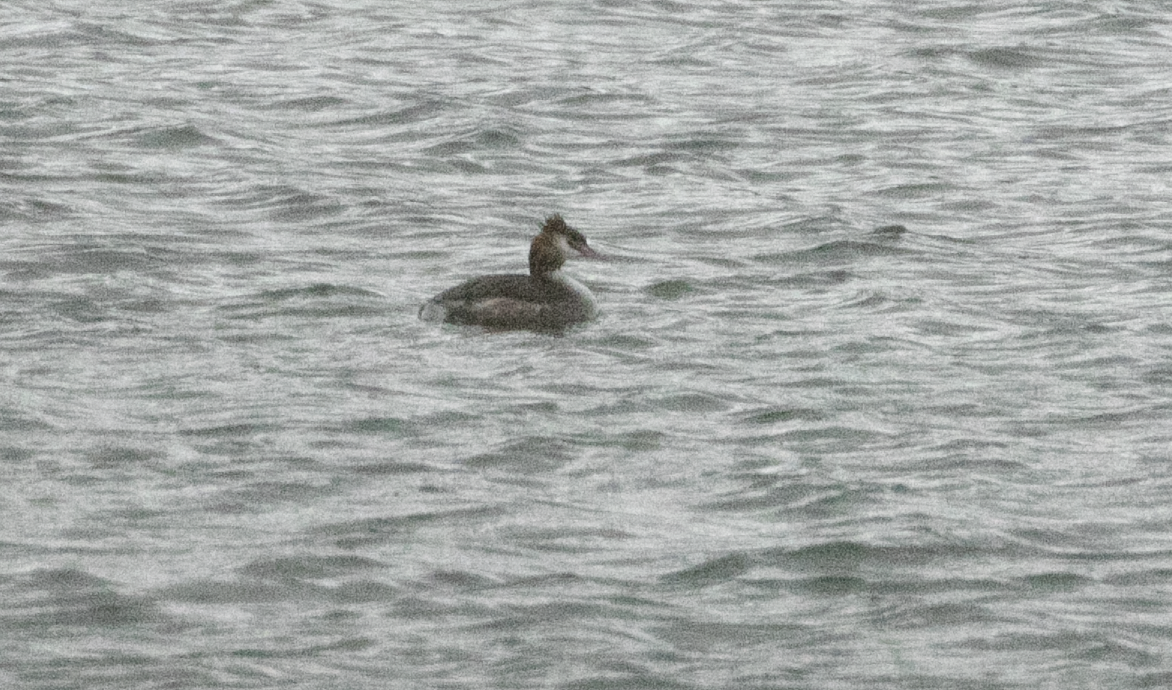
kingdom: Animalia
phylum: Chordata
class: Aves
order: Podicipediformes
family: Podicipedidae
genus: Podiceps
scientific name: Podiceps cristatus
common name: Great crested grebe
